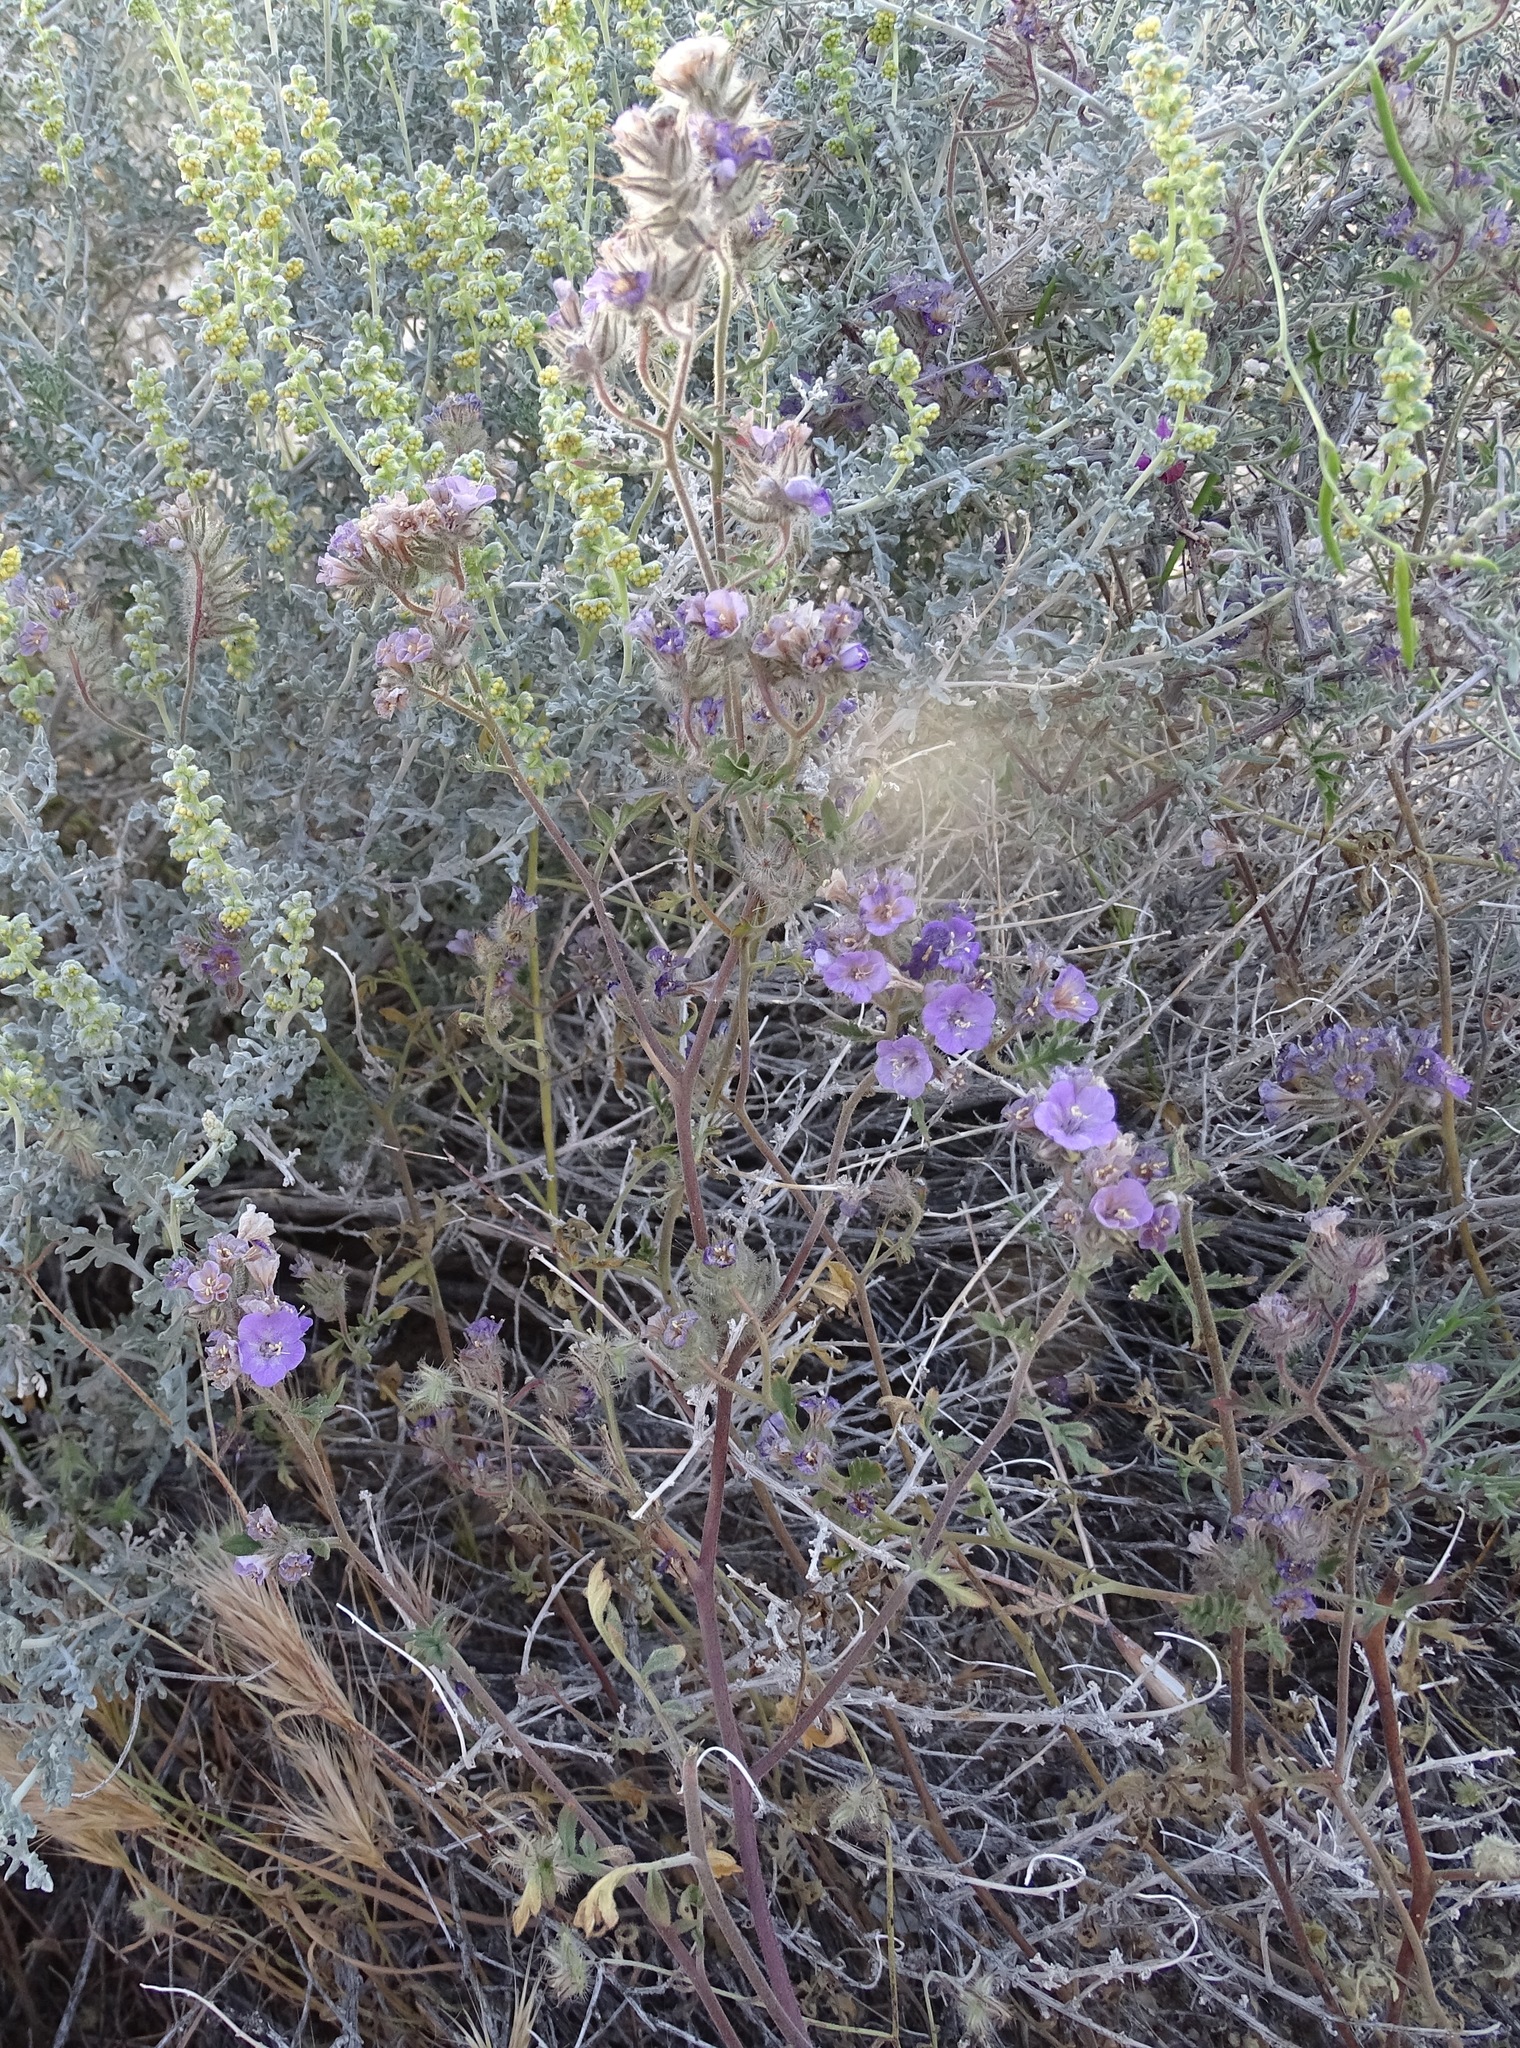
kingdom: Plantae
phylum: Tracheophyta
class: Magnoliopsida
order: Boraginales
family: Hydrophyllaceae
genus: Phacelia
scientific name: Phacelia vallis-mortae
